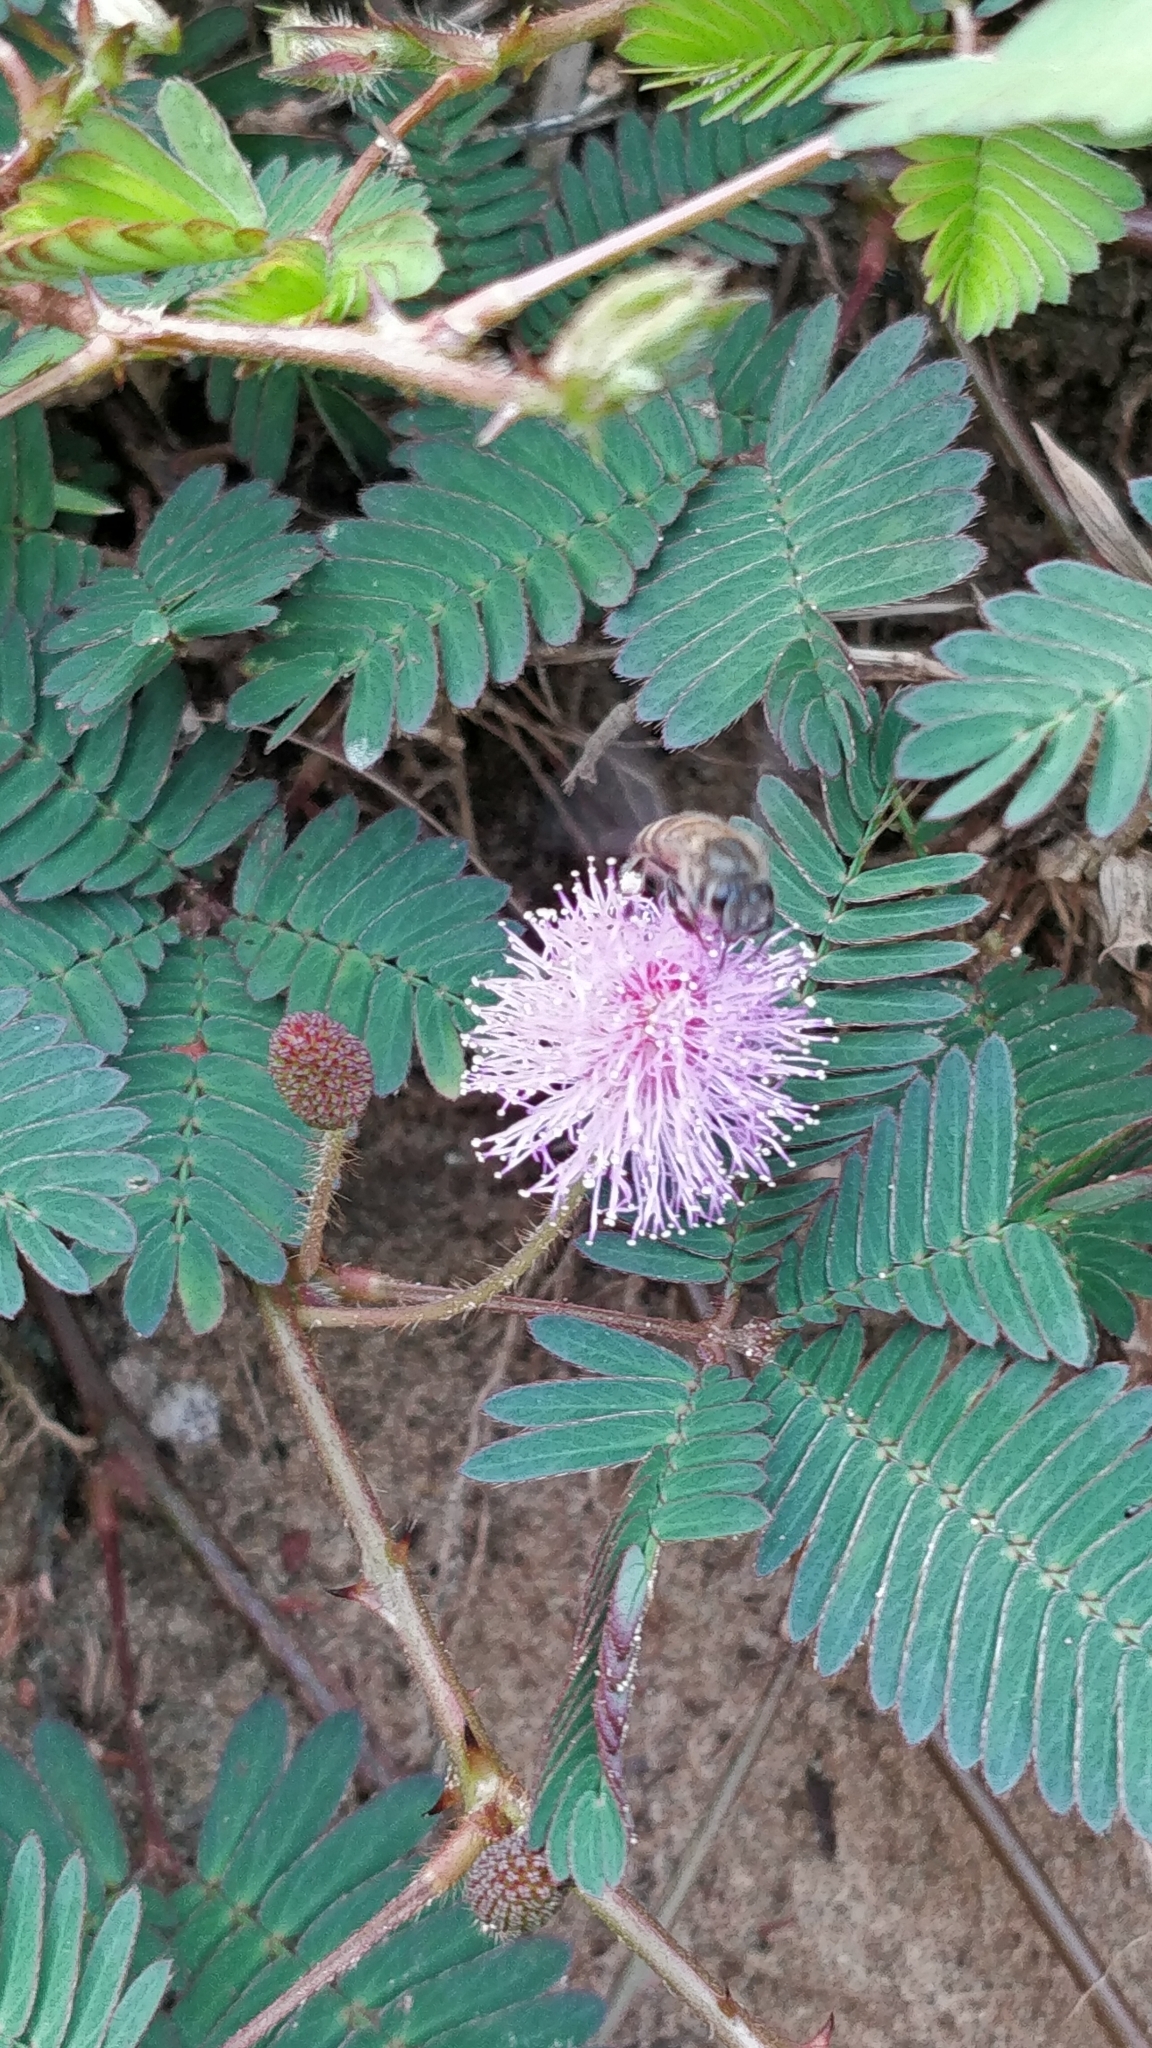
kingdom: Plantae
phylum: Tracheophyta
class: Magnoliopsida
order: Fabales
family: Fabaceae
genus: Mimosa
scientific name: Mimosa pudica
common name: Sensitive plant
